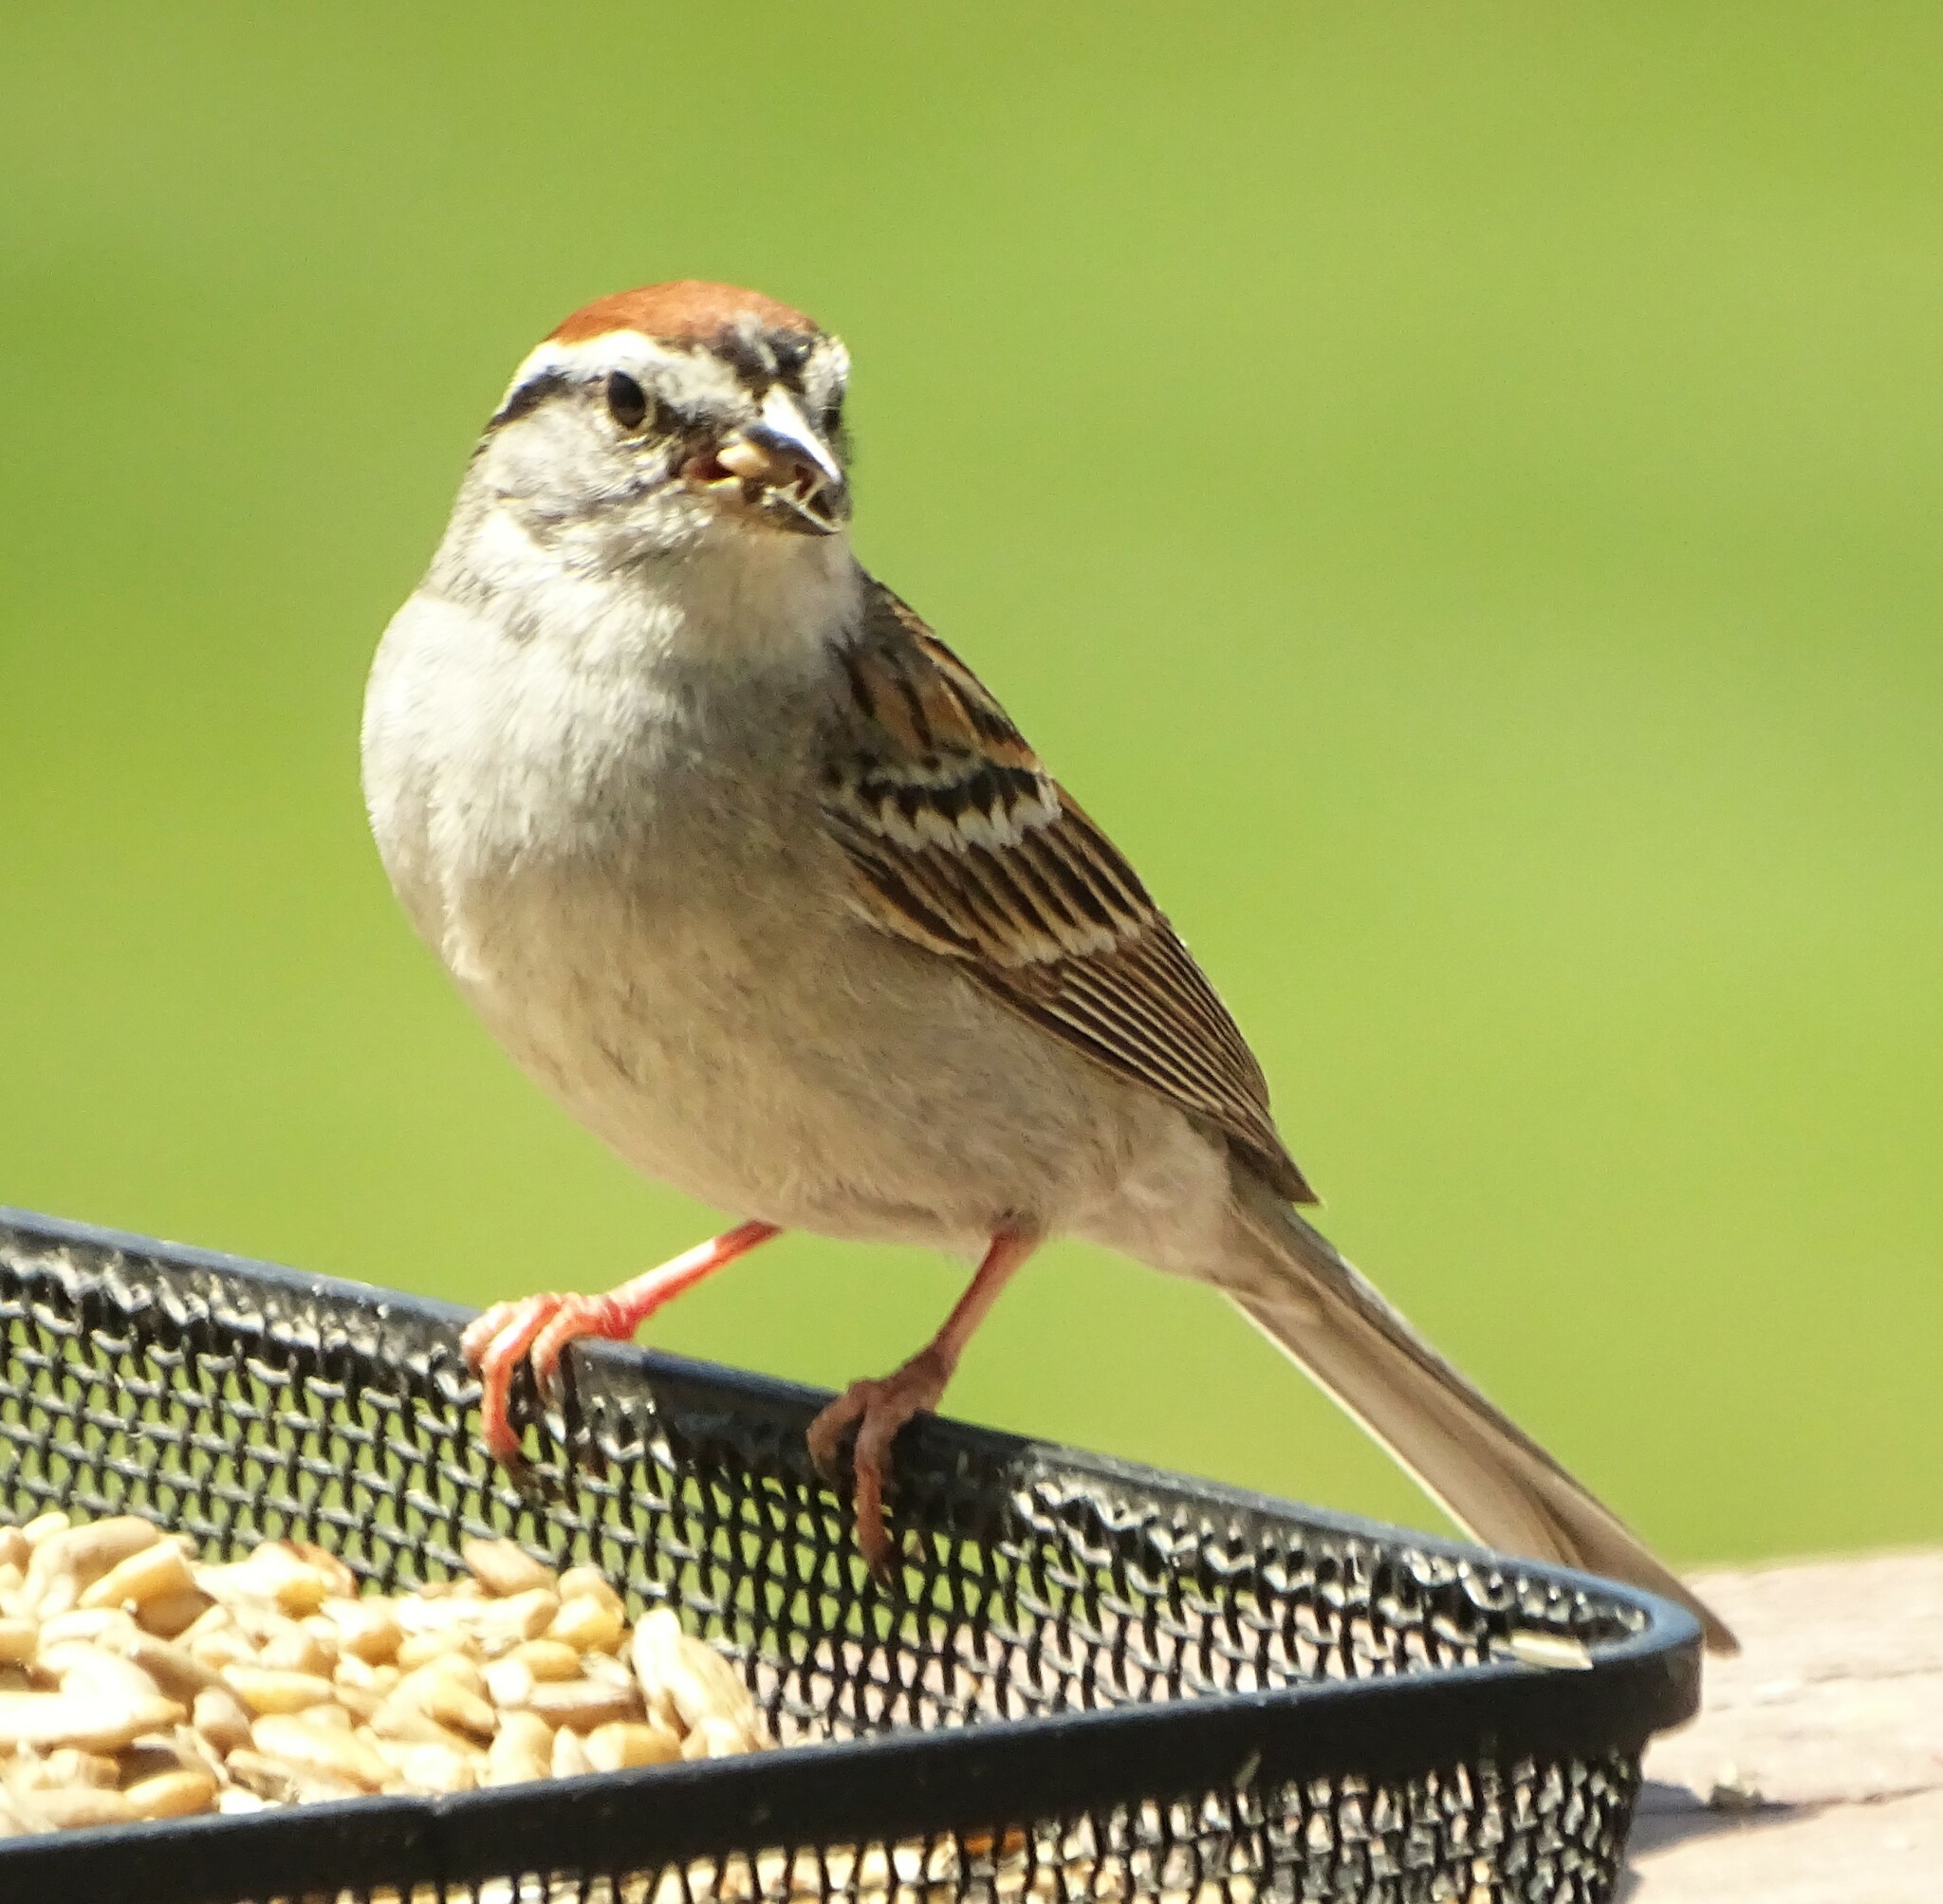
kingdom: Animalia
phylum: Chordata
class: Aves
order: Passeriformes
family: Passerellidae
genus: Spizella
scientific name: Spizella passerina
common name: Chipping sparrow
